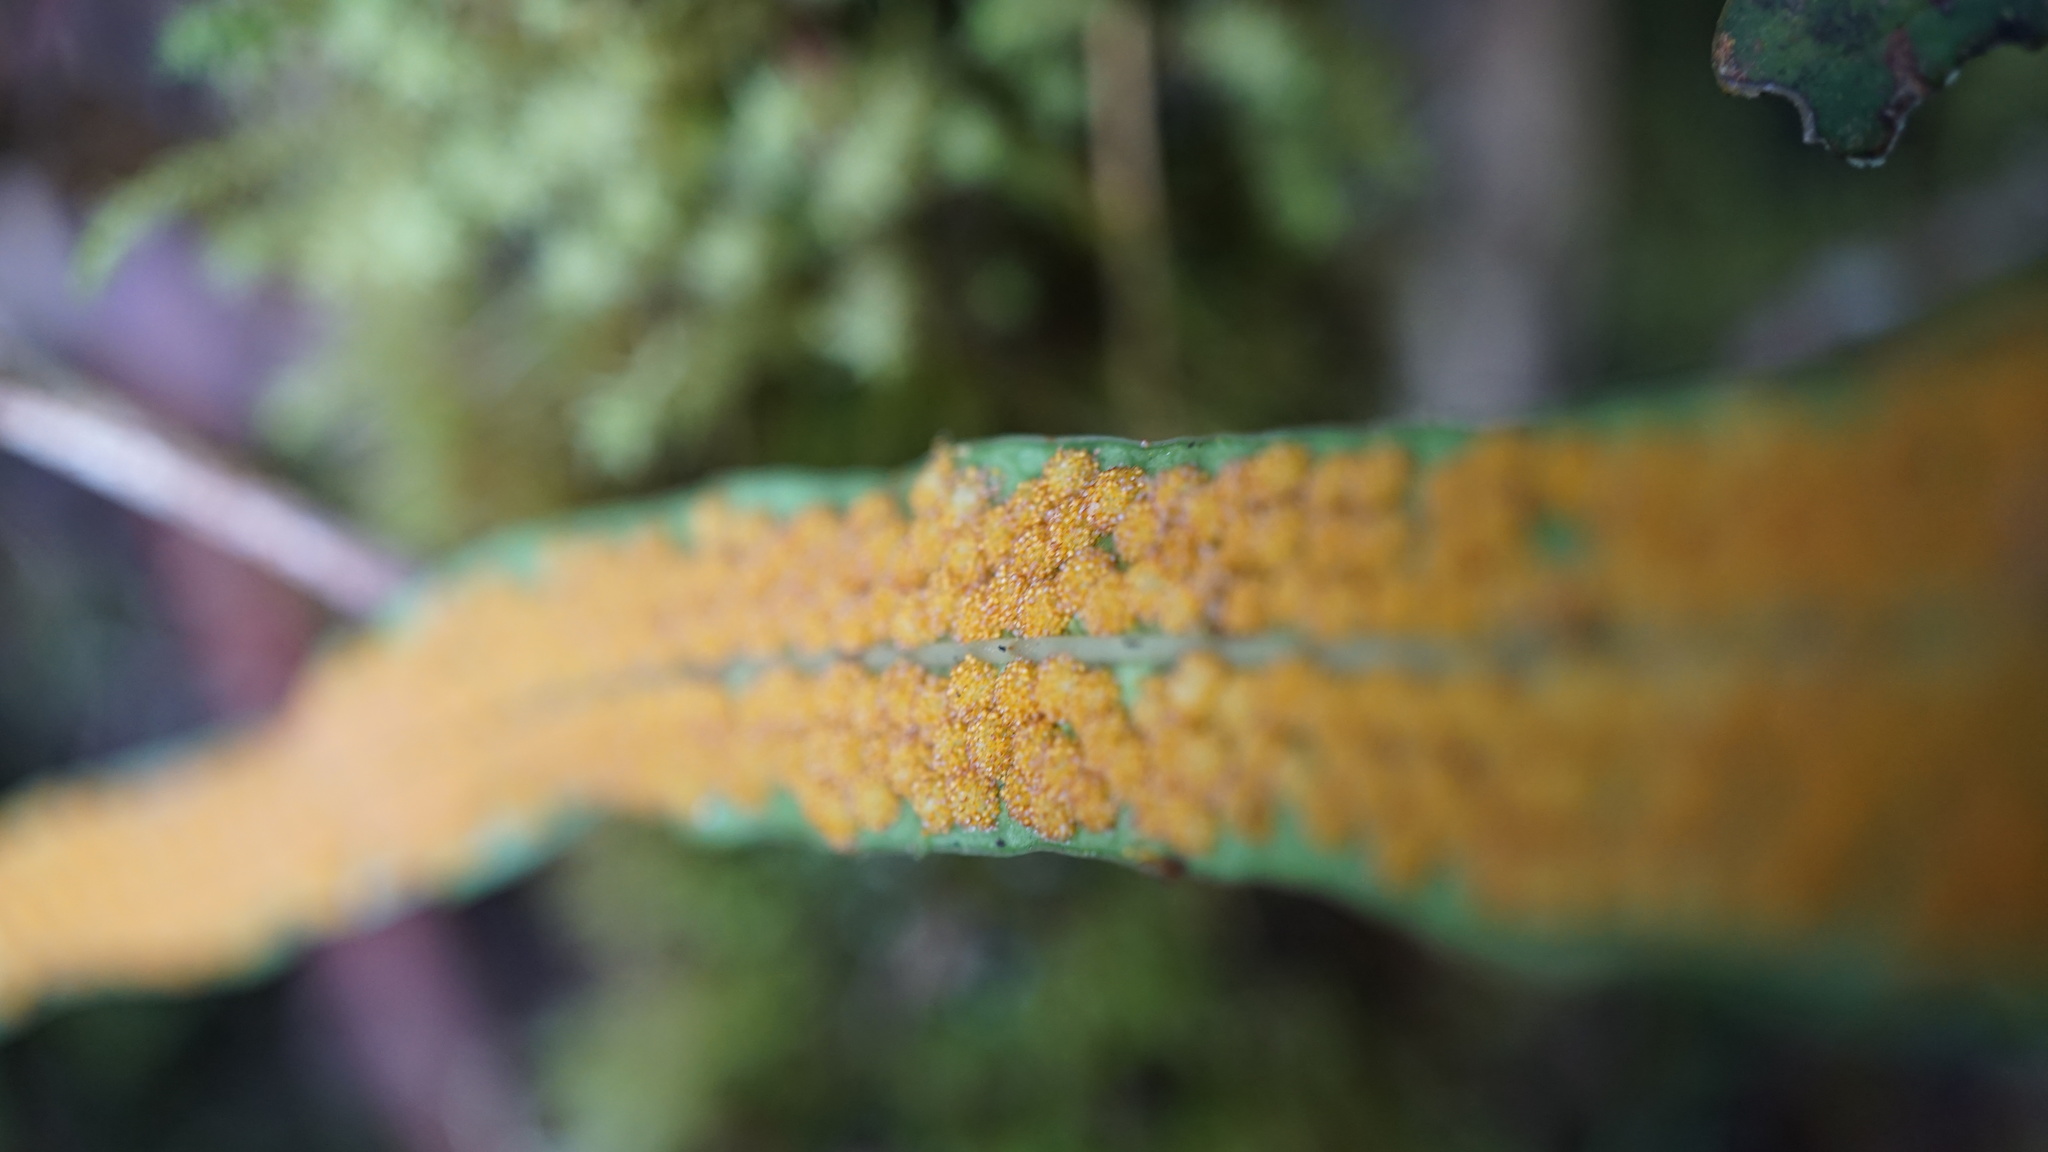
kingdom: Plantae
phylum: Tracheophyta
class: Polypodiopsida
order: Polypodiales
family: Polypodiaceae
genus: Campyloneurum
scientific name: Campyloneurum amphostenon
